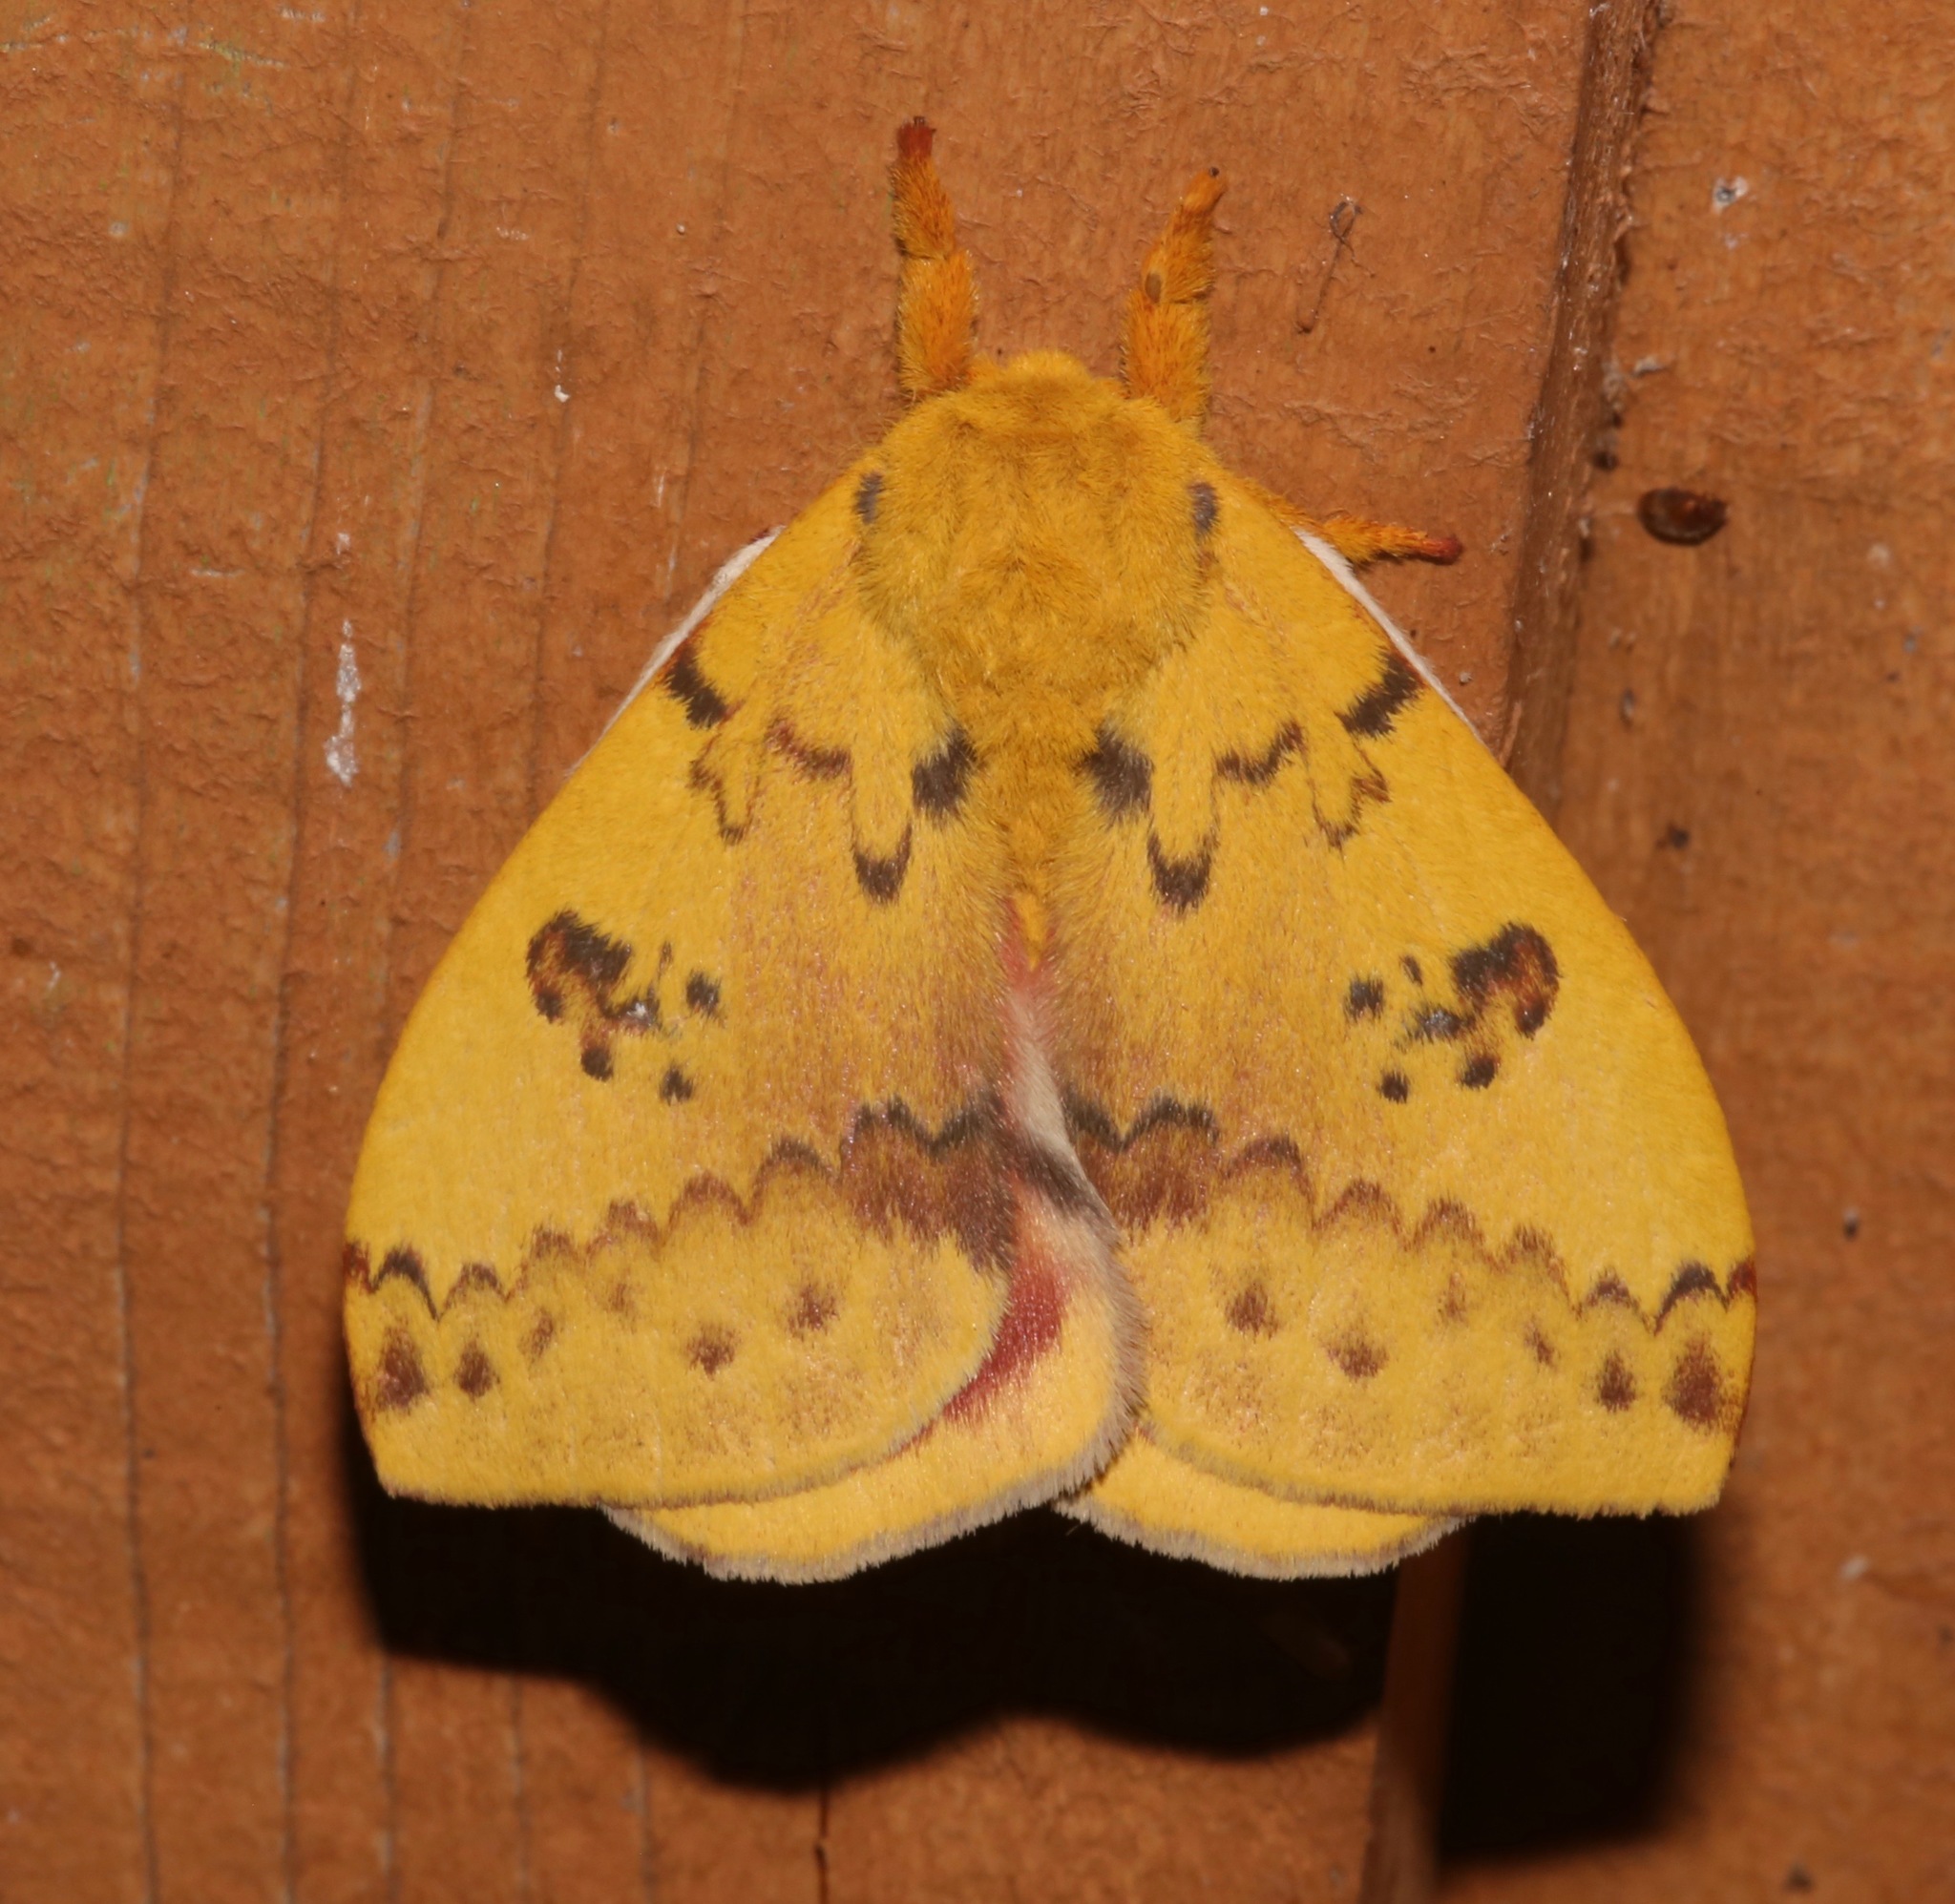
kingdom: Animalia
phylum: Arthropoda
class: Insecta
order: Lepidoptera
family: Saturniidae
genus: Automeris
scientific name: Automeris io
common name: Io moth
